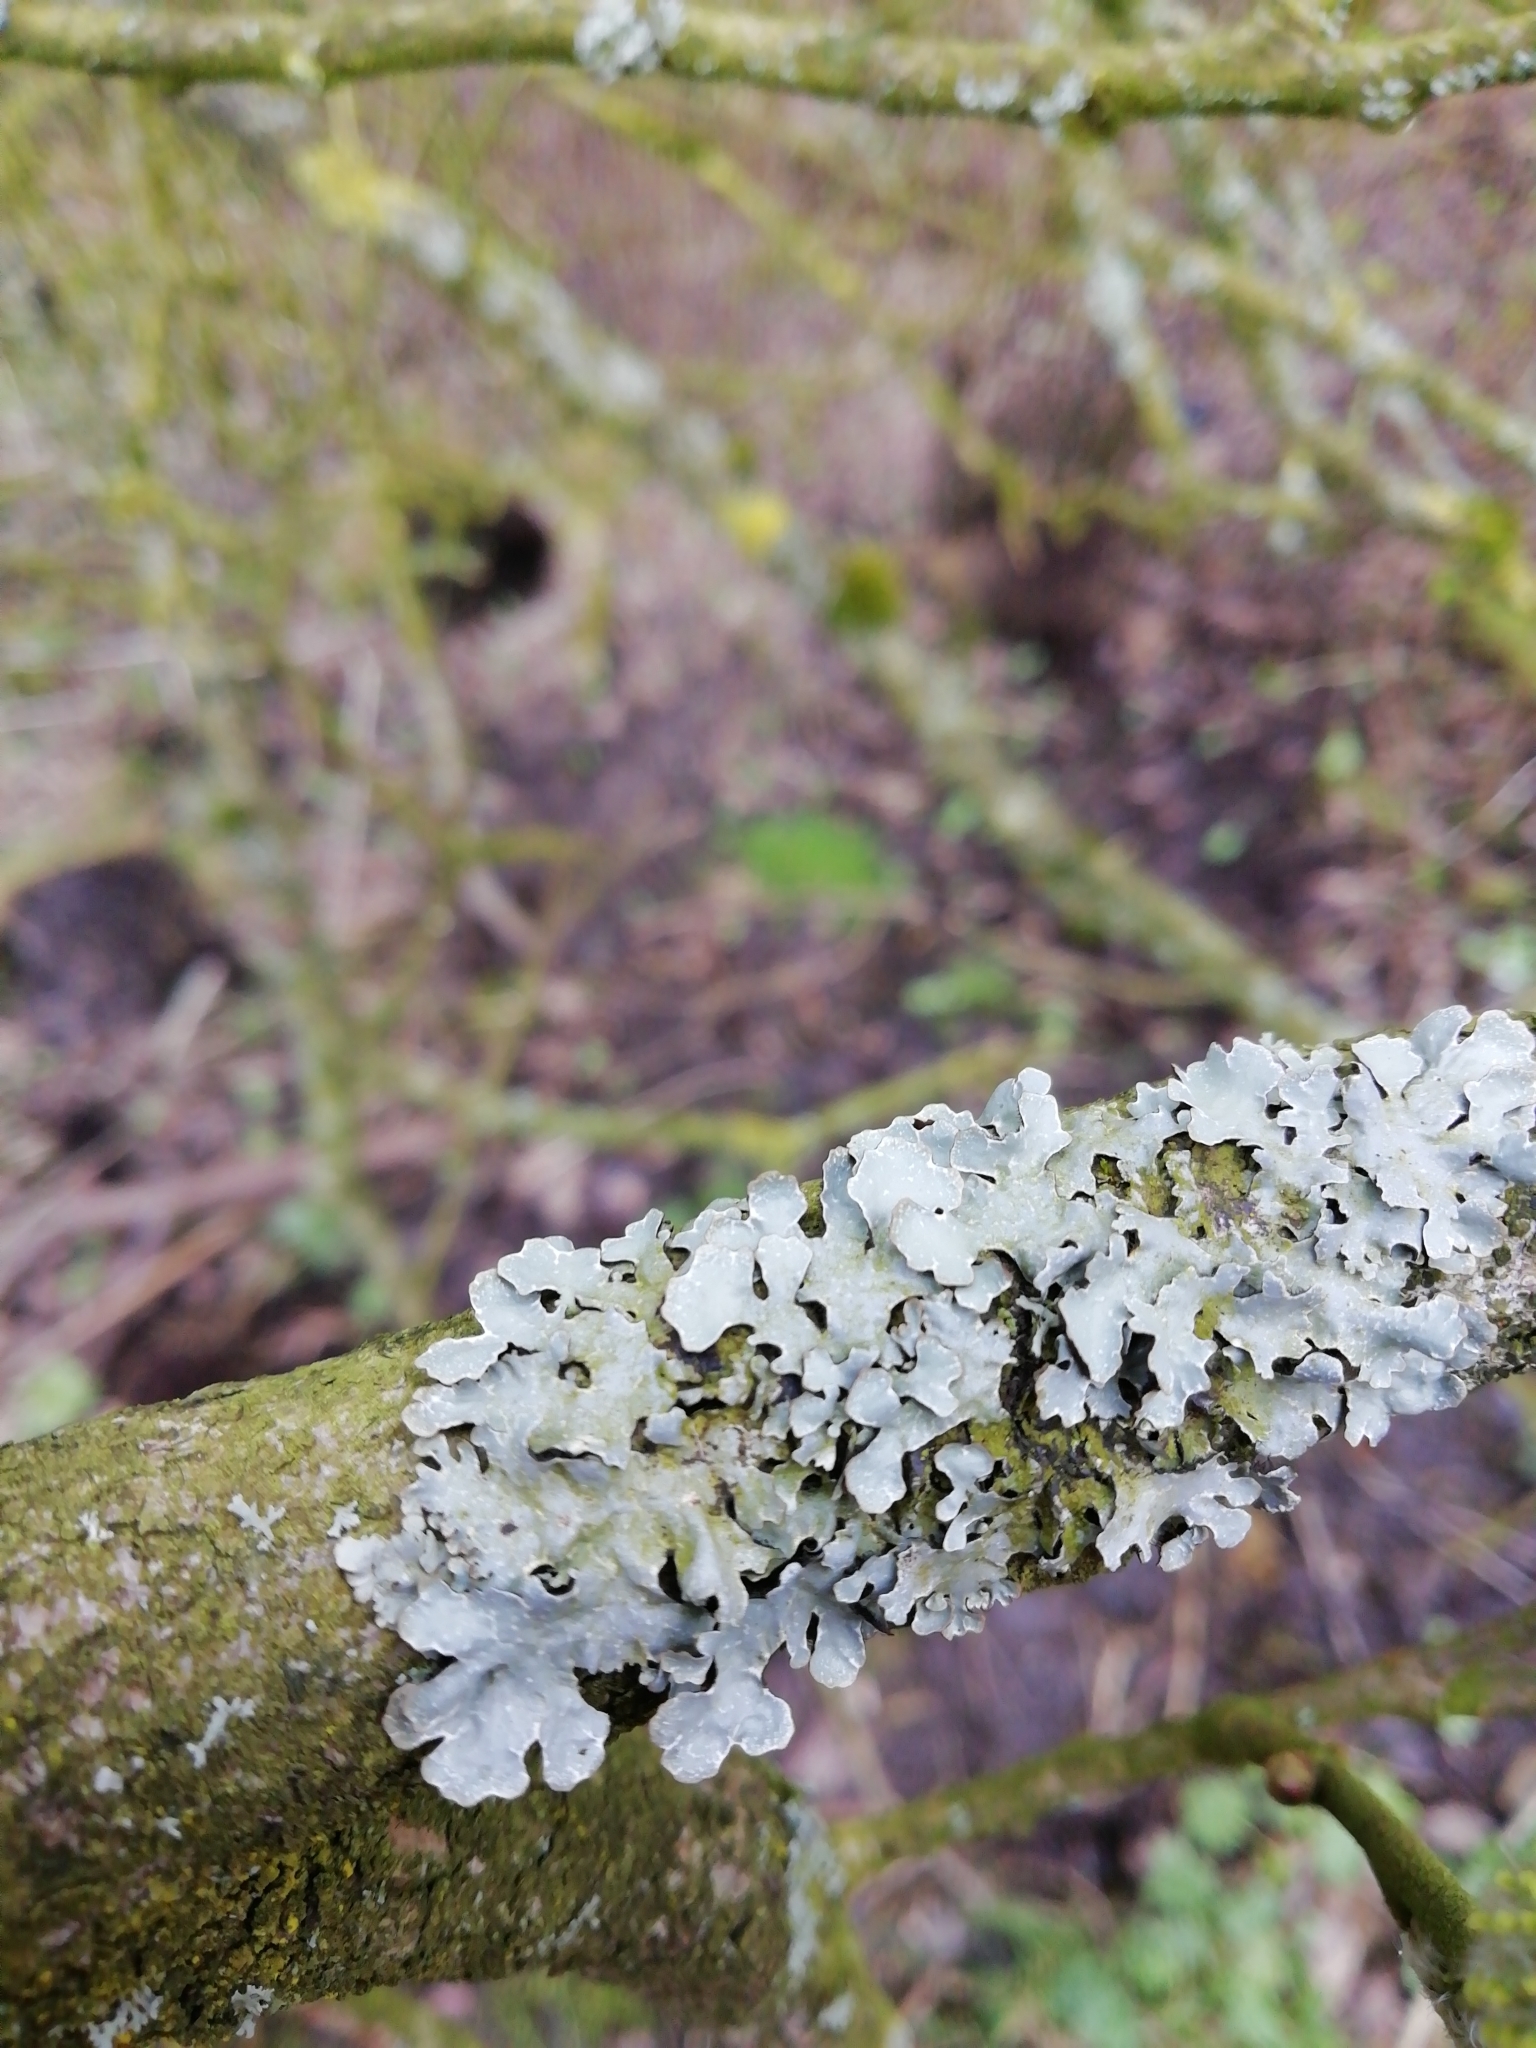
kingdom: Fungi
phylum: Ascomycota
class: Lecanoromycetes
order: Lecanorales
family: Parmeliaceae
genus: Parmelia
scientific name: Parmelia sulcata
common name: Netted shield lichen
